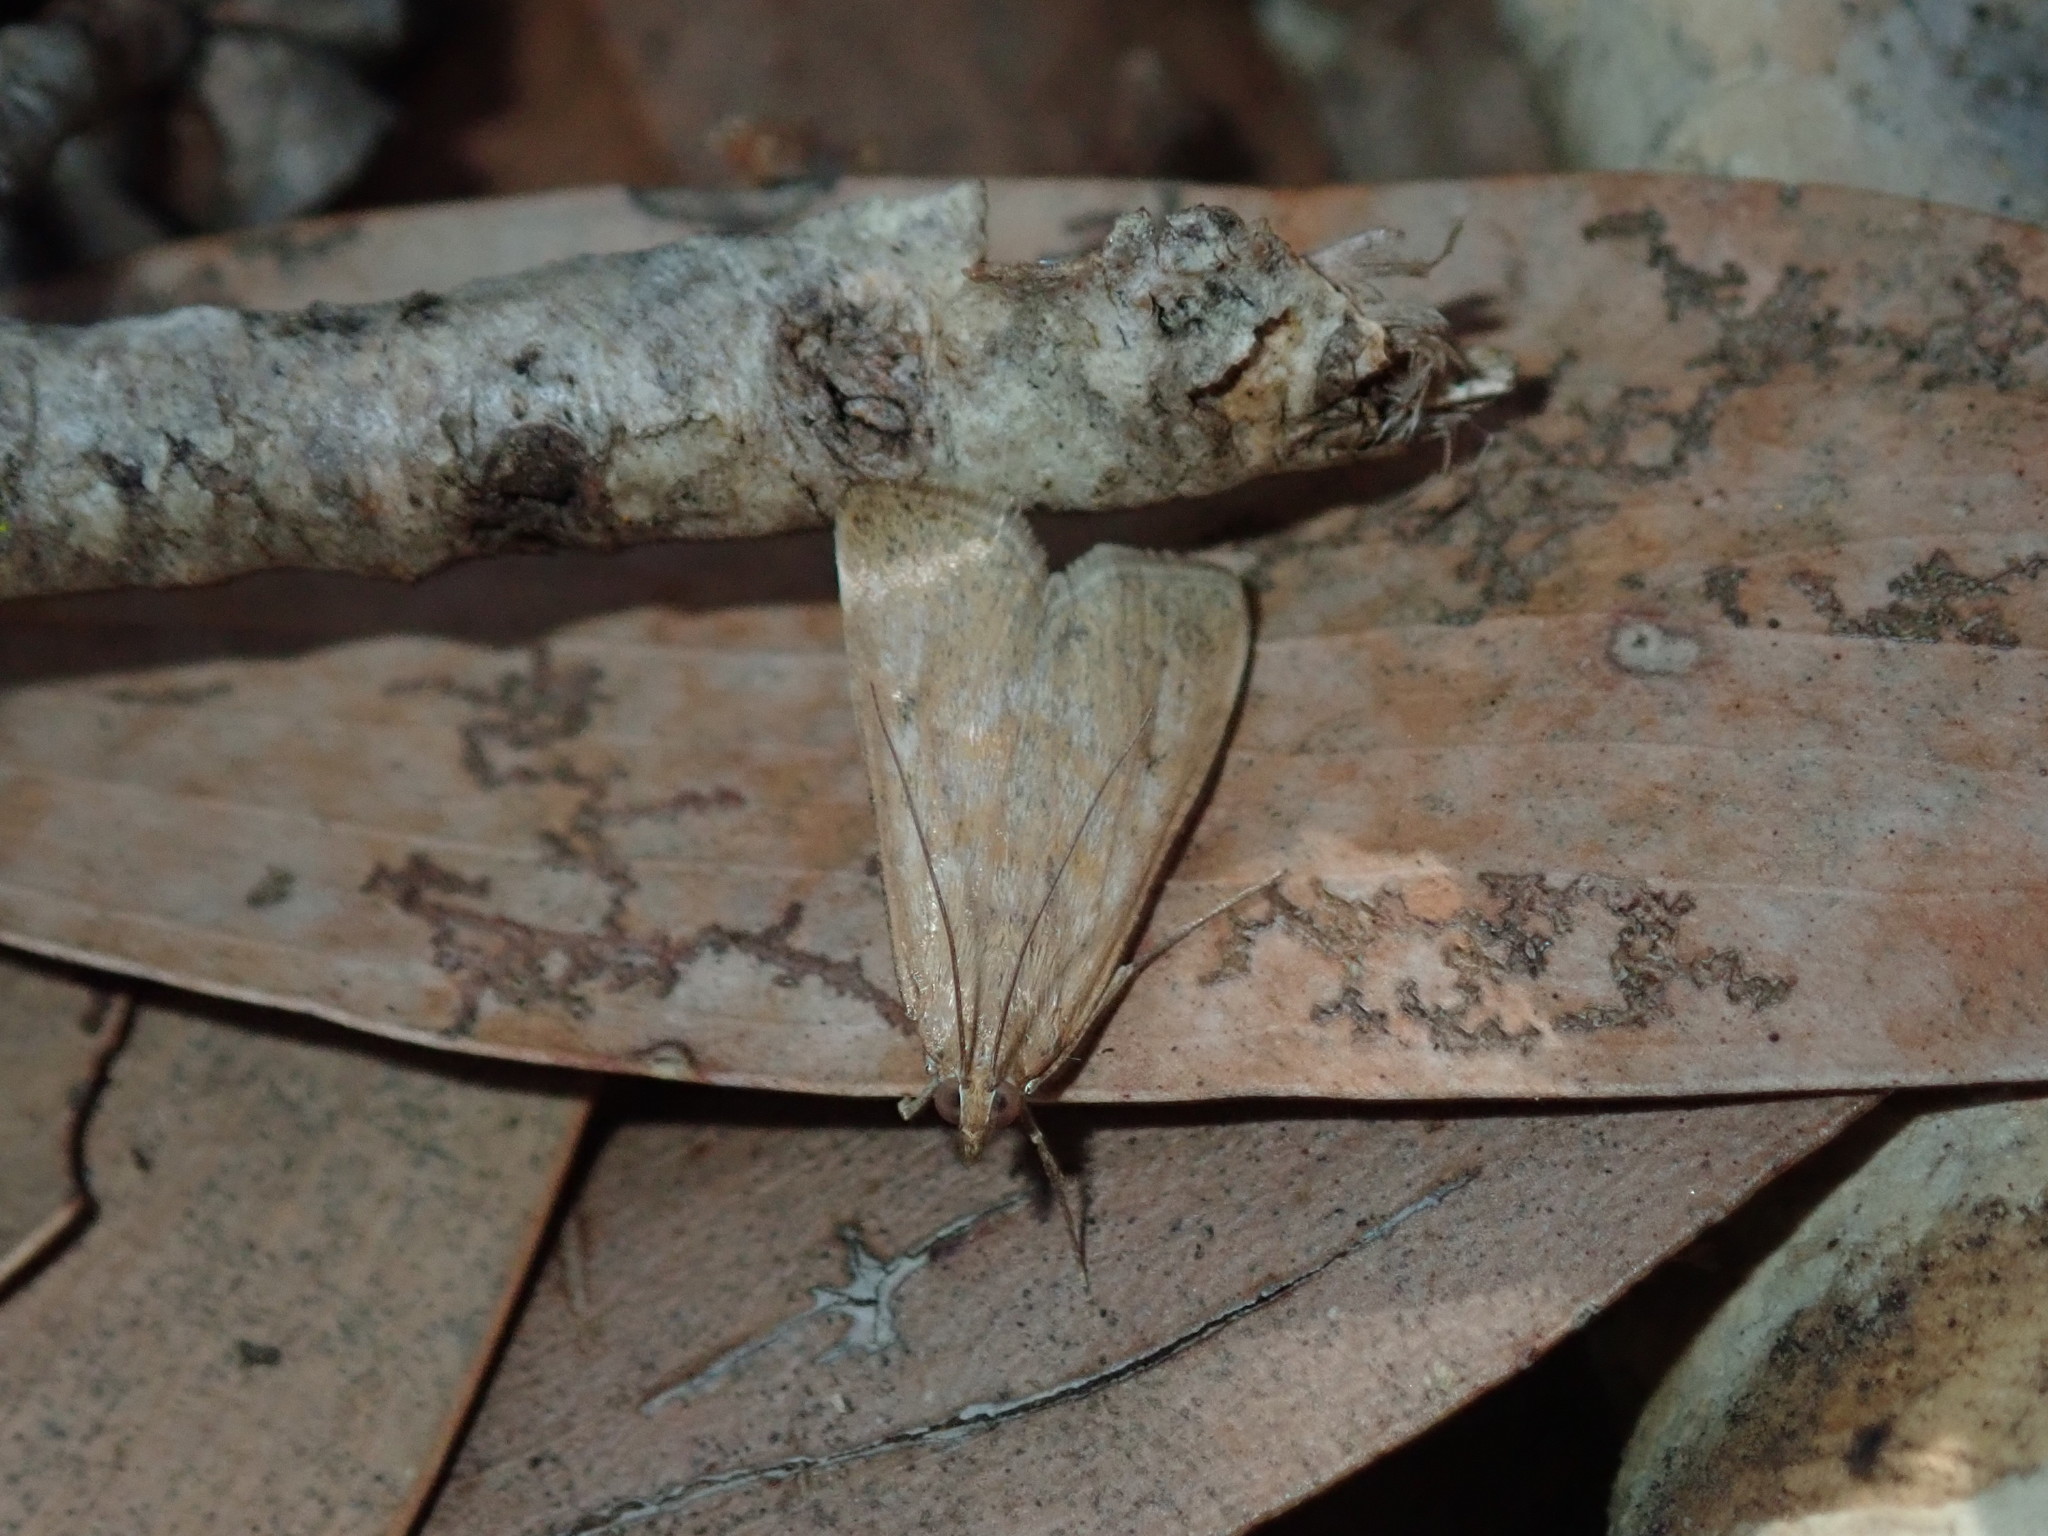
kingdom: Animalia
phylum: Arthropoda
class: Insecta
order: Lepidoptera
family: Crambidae
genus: Achyra
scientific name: Achyra affinitalis
